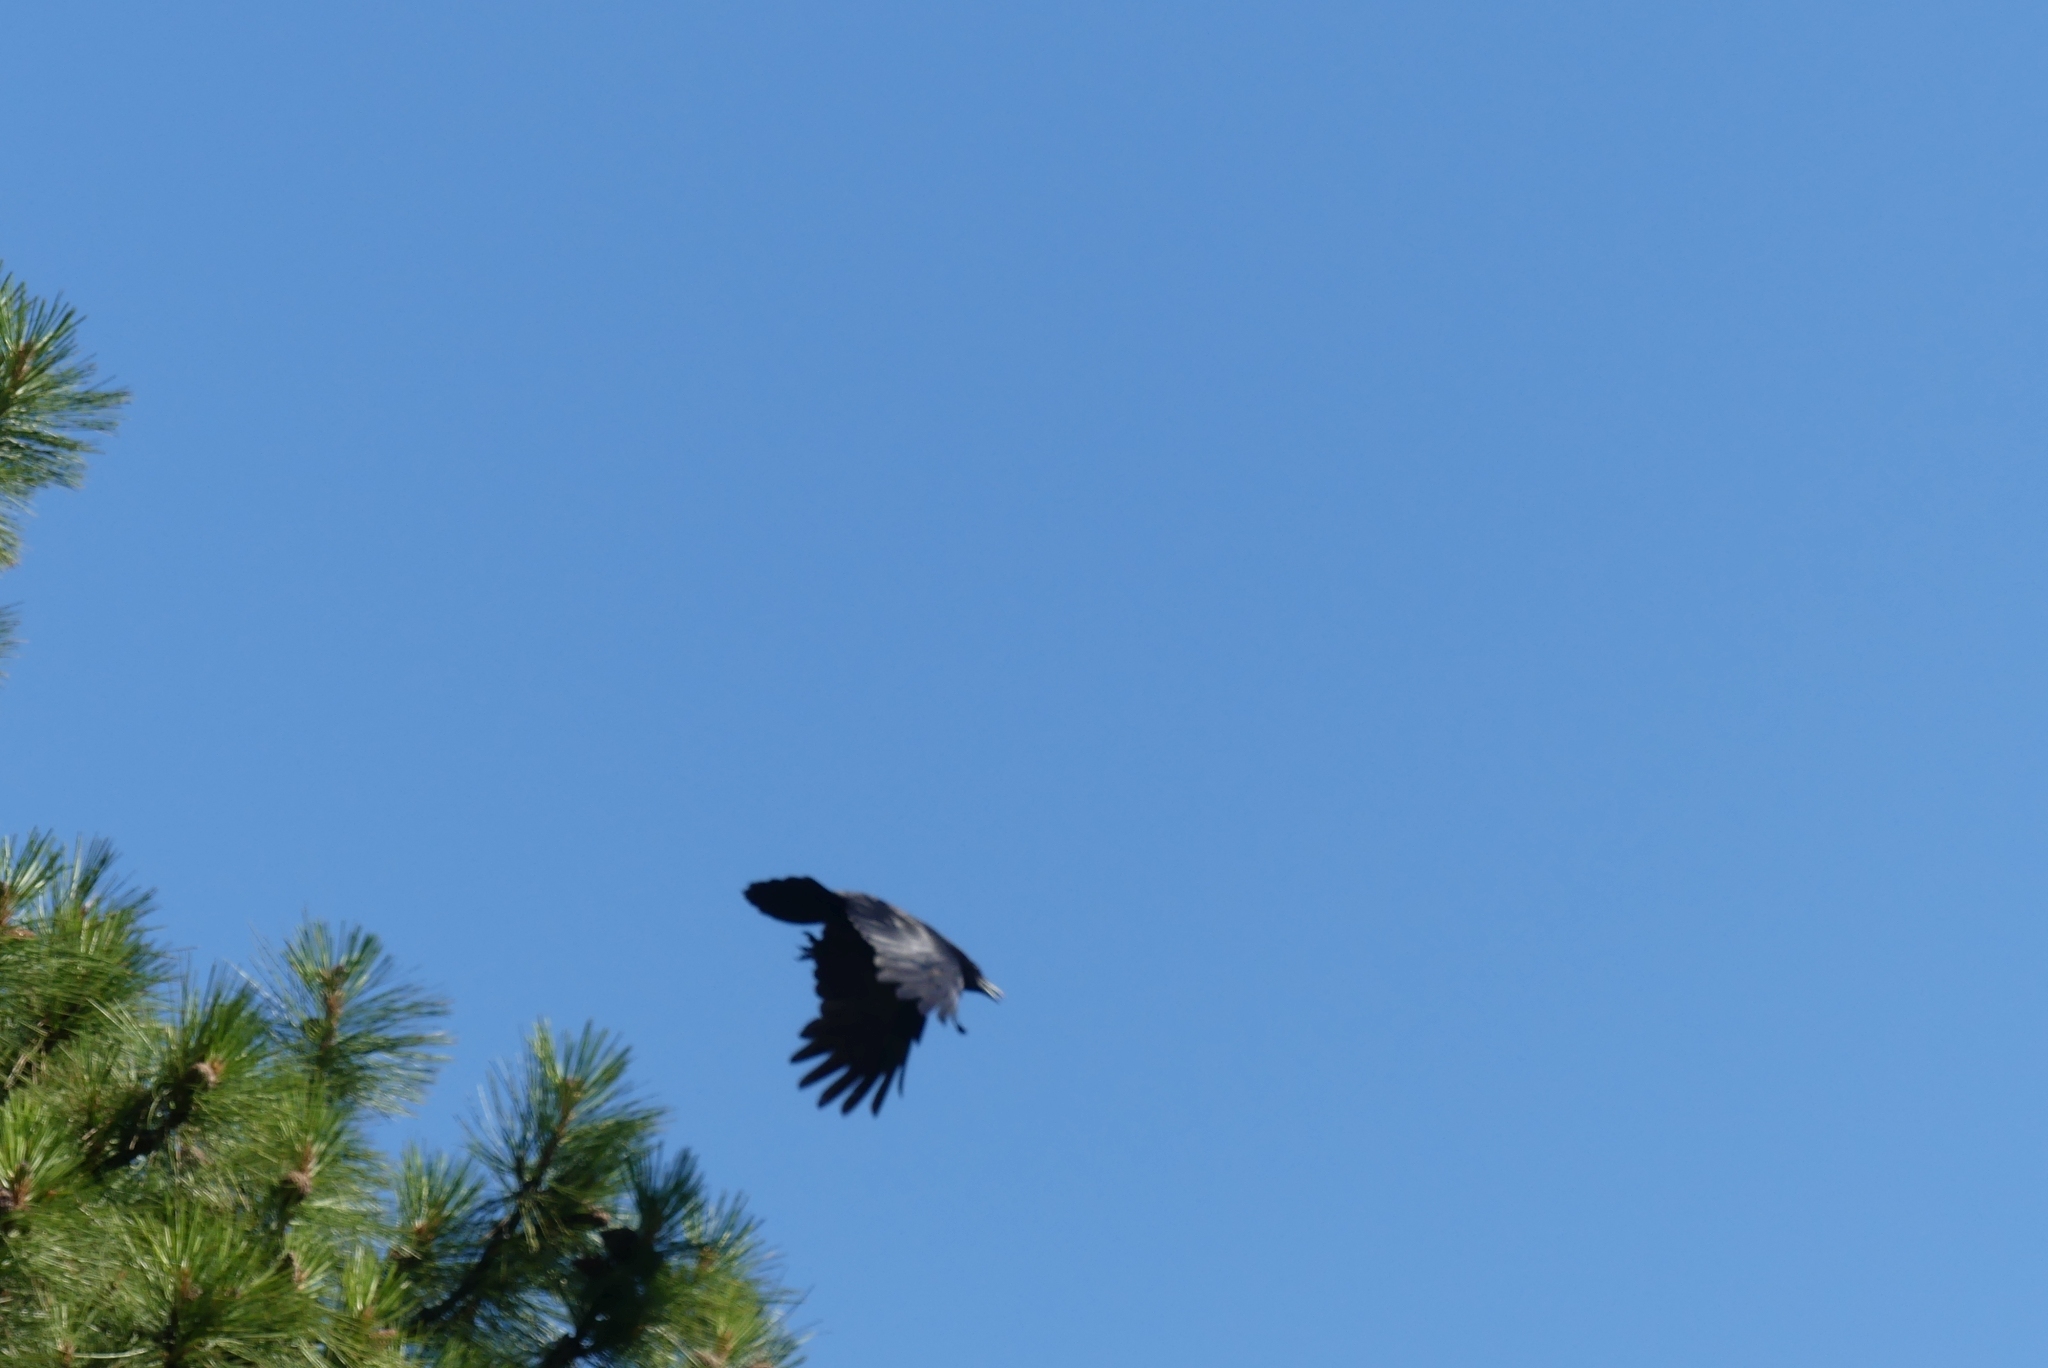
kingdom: Animalia
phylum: Chordata
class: Aves
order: Passeriformes
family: Corvidae
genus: Corvus
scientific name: Corvus corax
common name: Common raven
